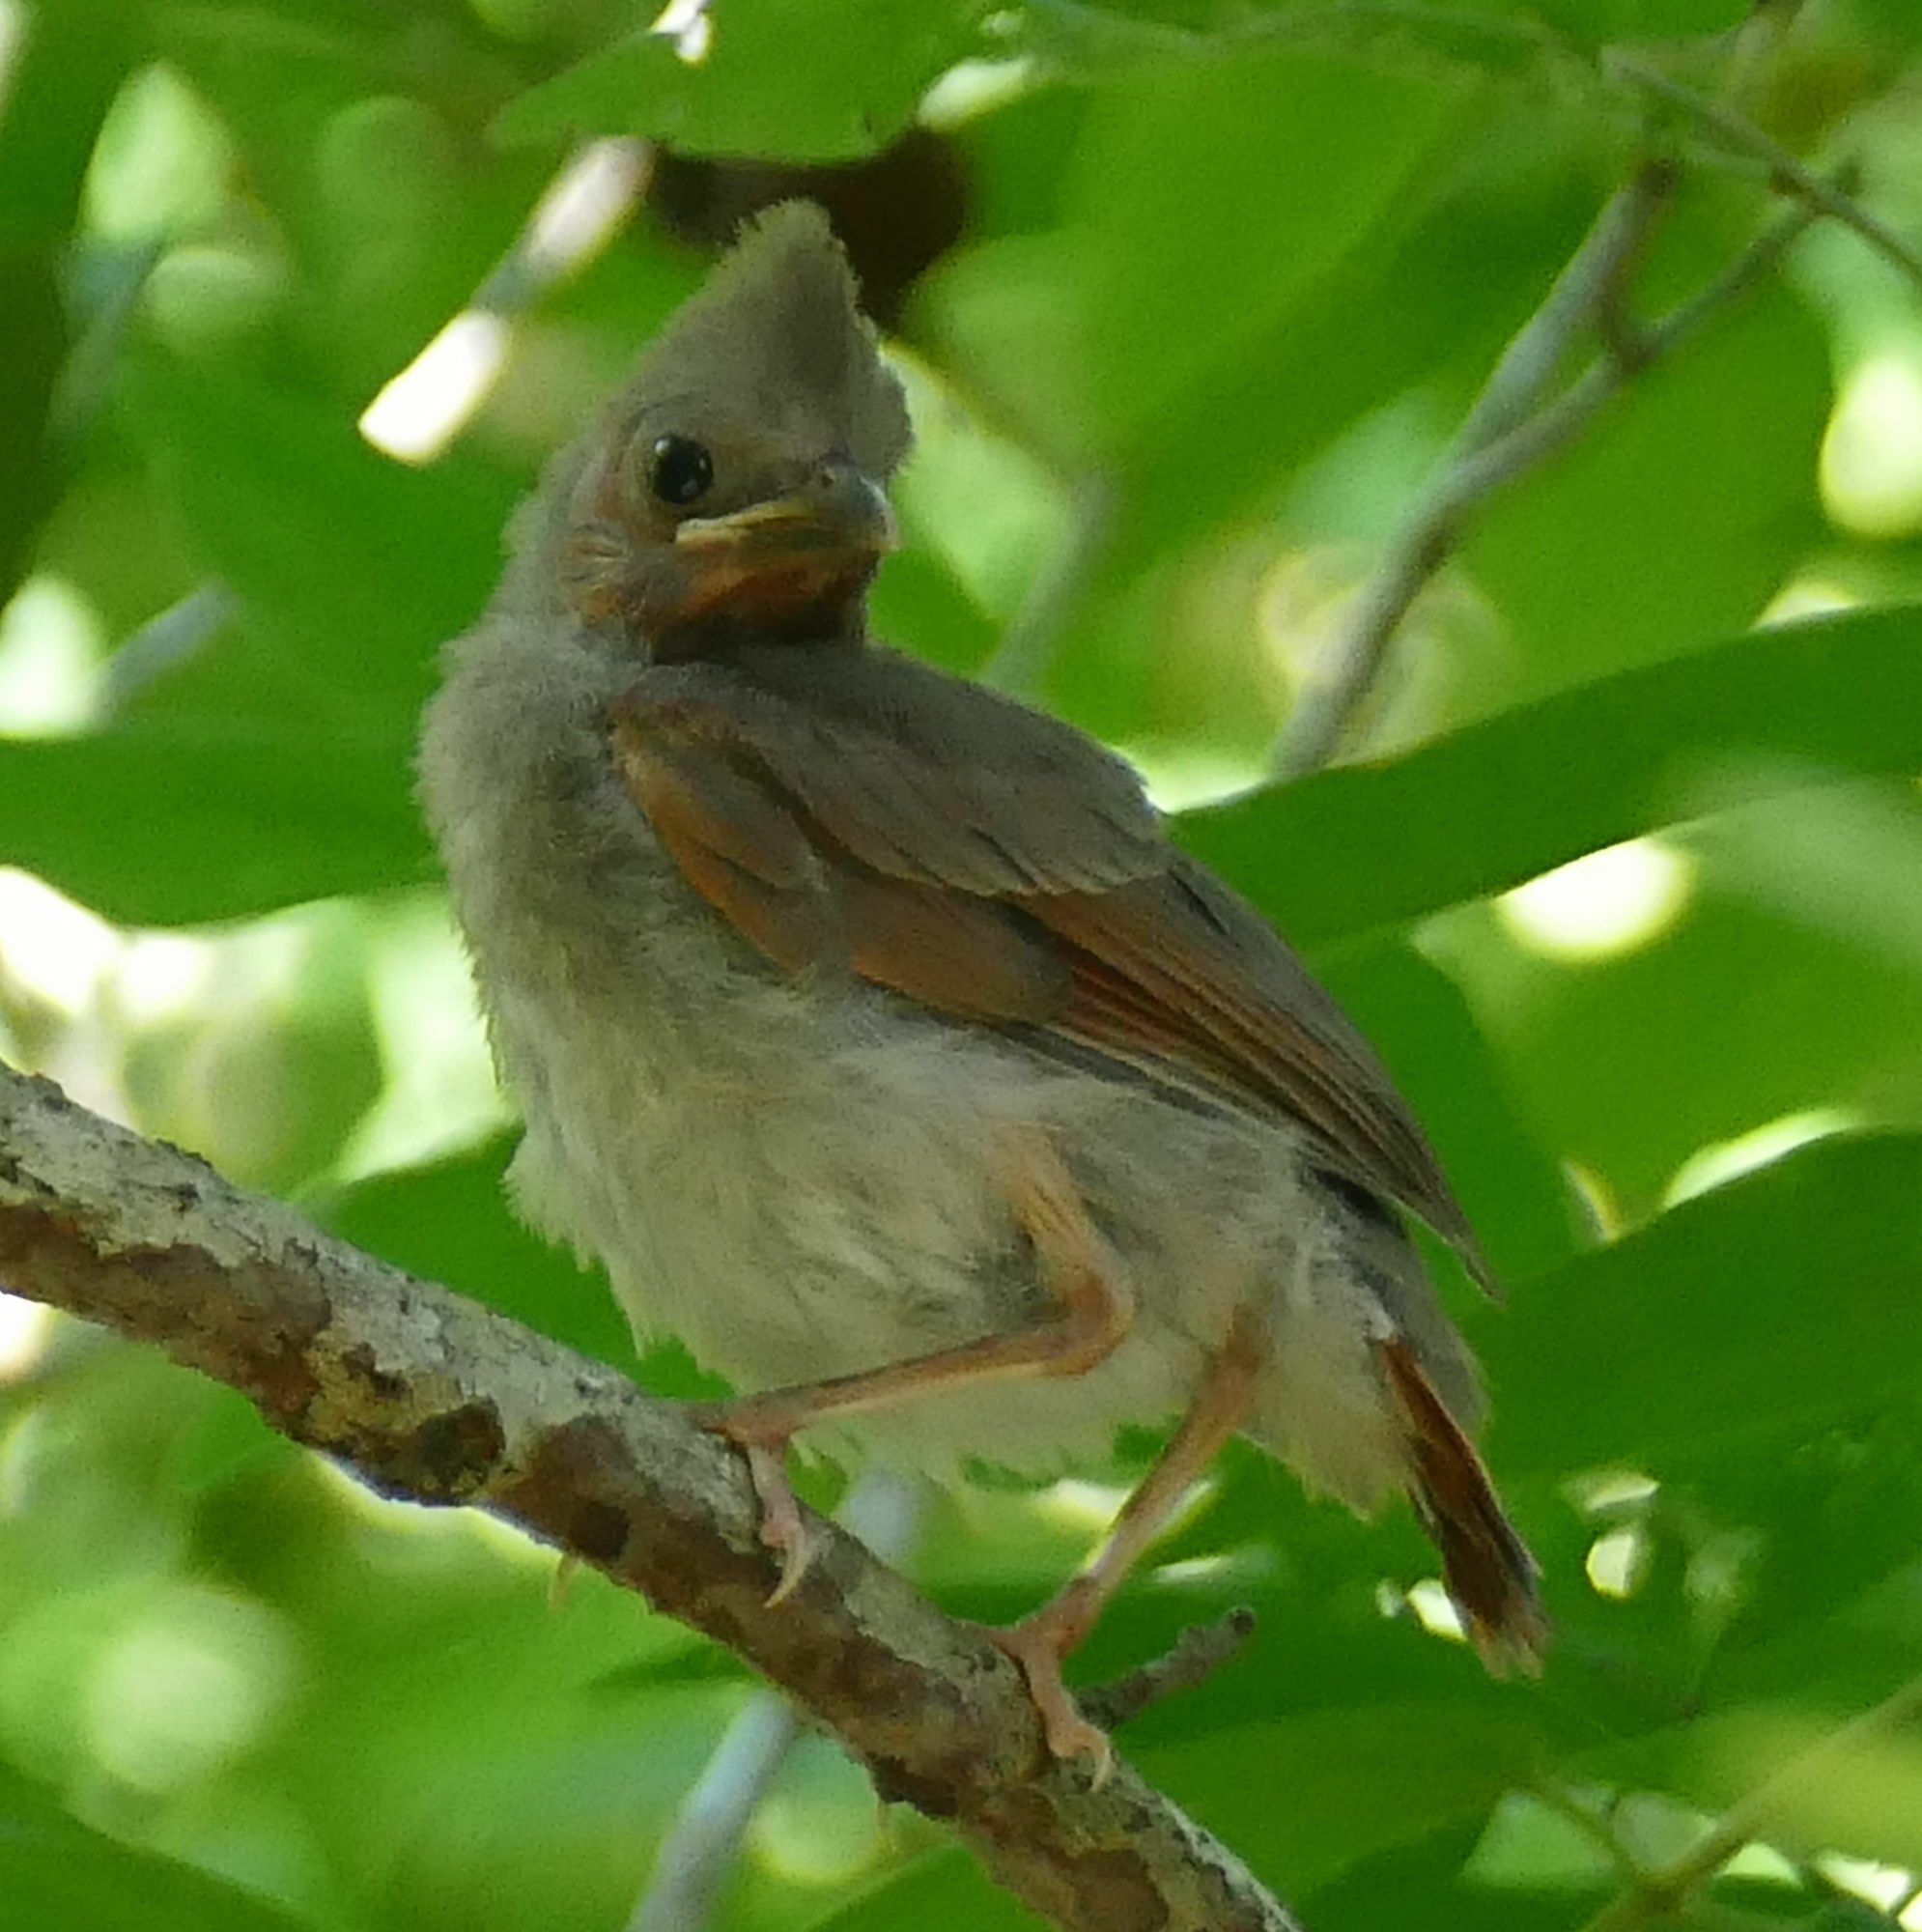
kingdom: Animalia
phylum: Chordata
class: Aves
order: Passeriformes
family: Cardinalidae
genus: Cardinalis
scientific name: Cardinalis cardinalis
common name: Northern cardinal
